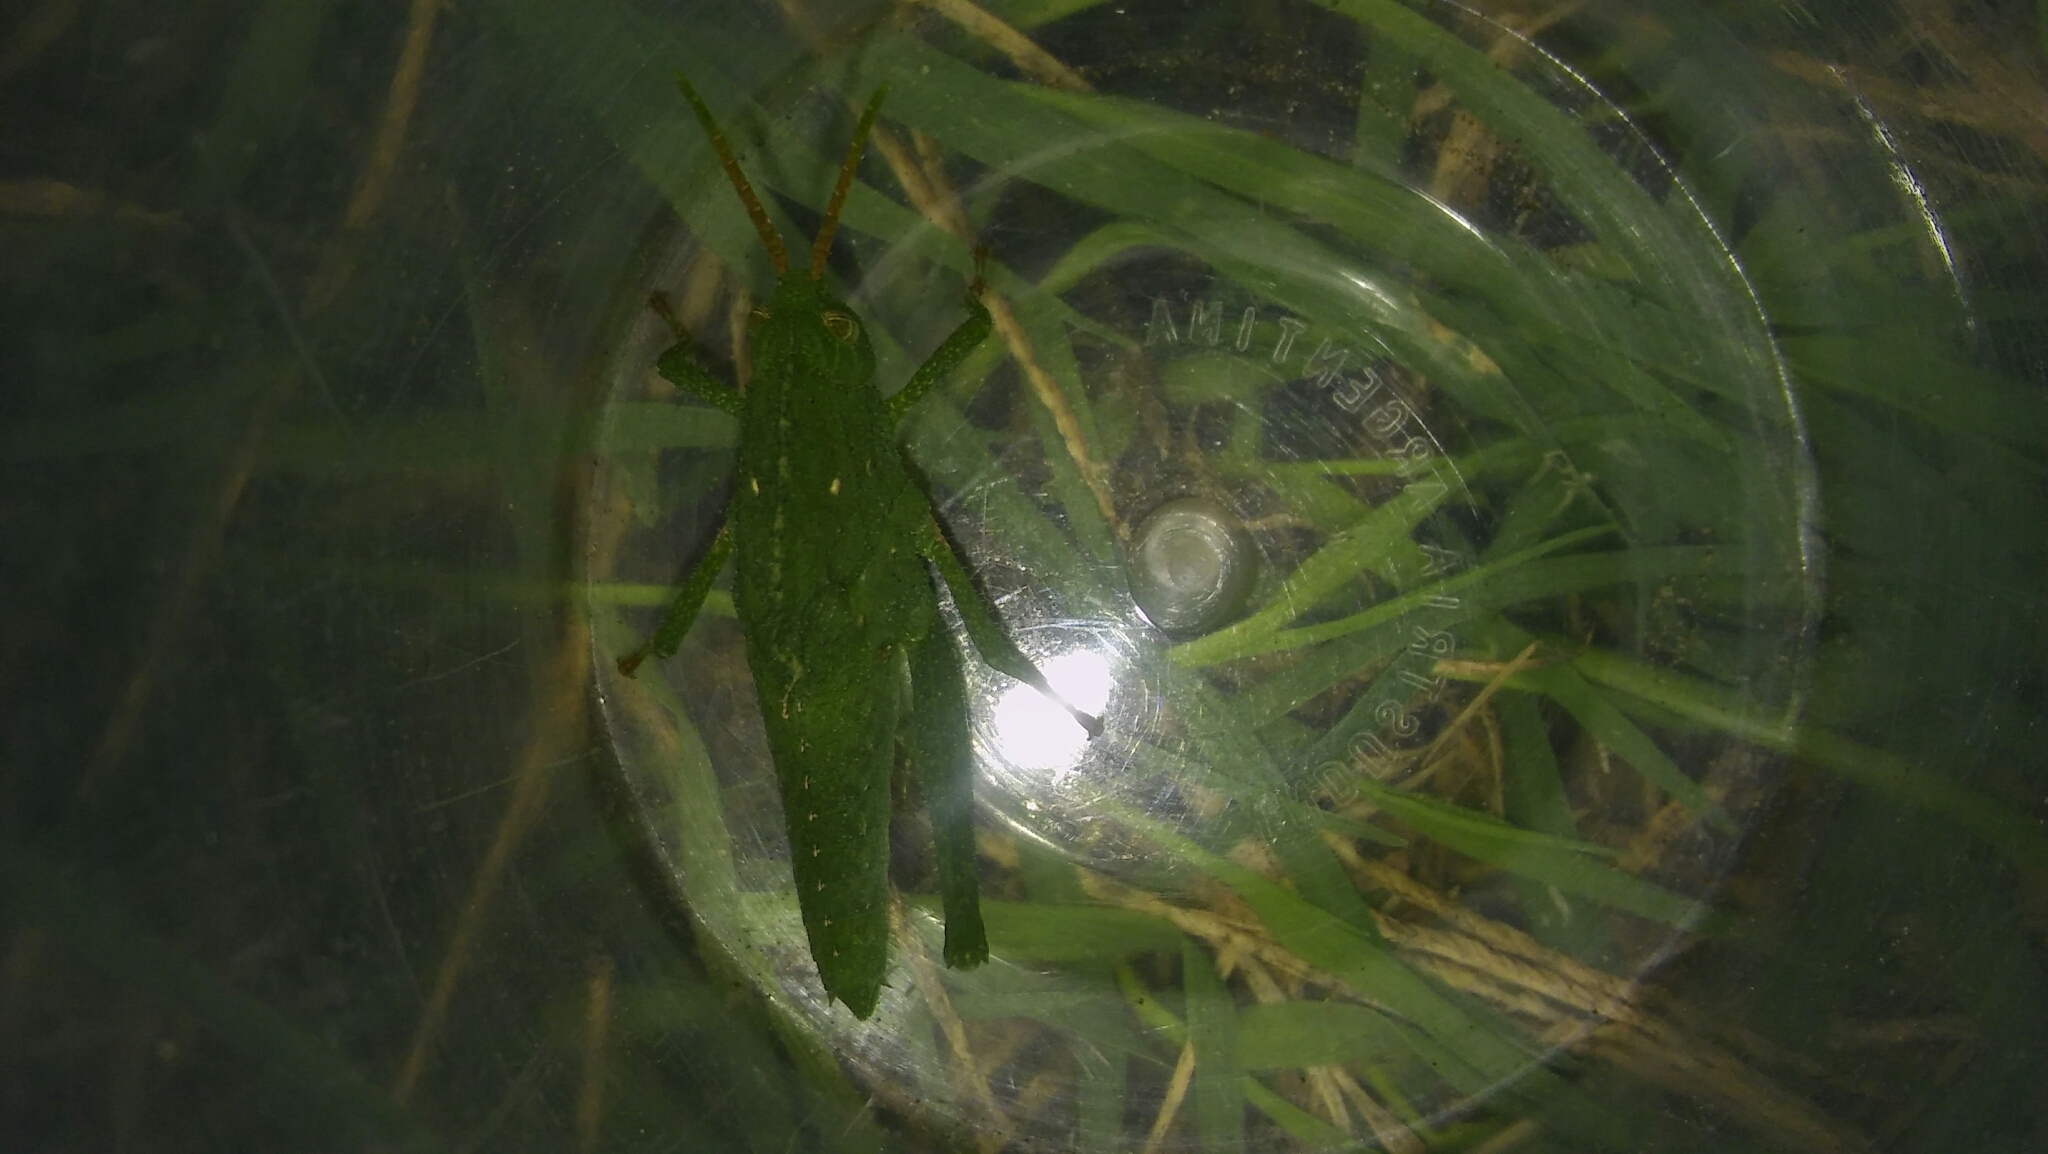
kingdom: Animalia
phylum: Arthropoda
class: Insecta
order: Orthoptera
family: Romaleidae
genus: Xyleus
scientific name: Xyleus discoideus
